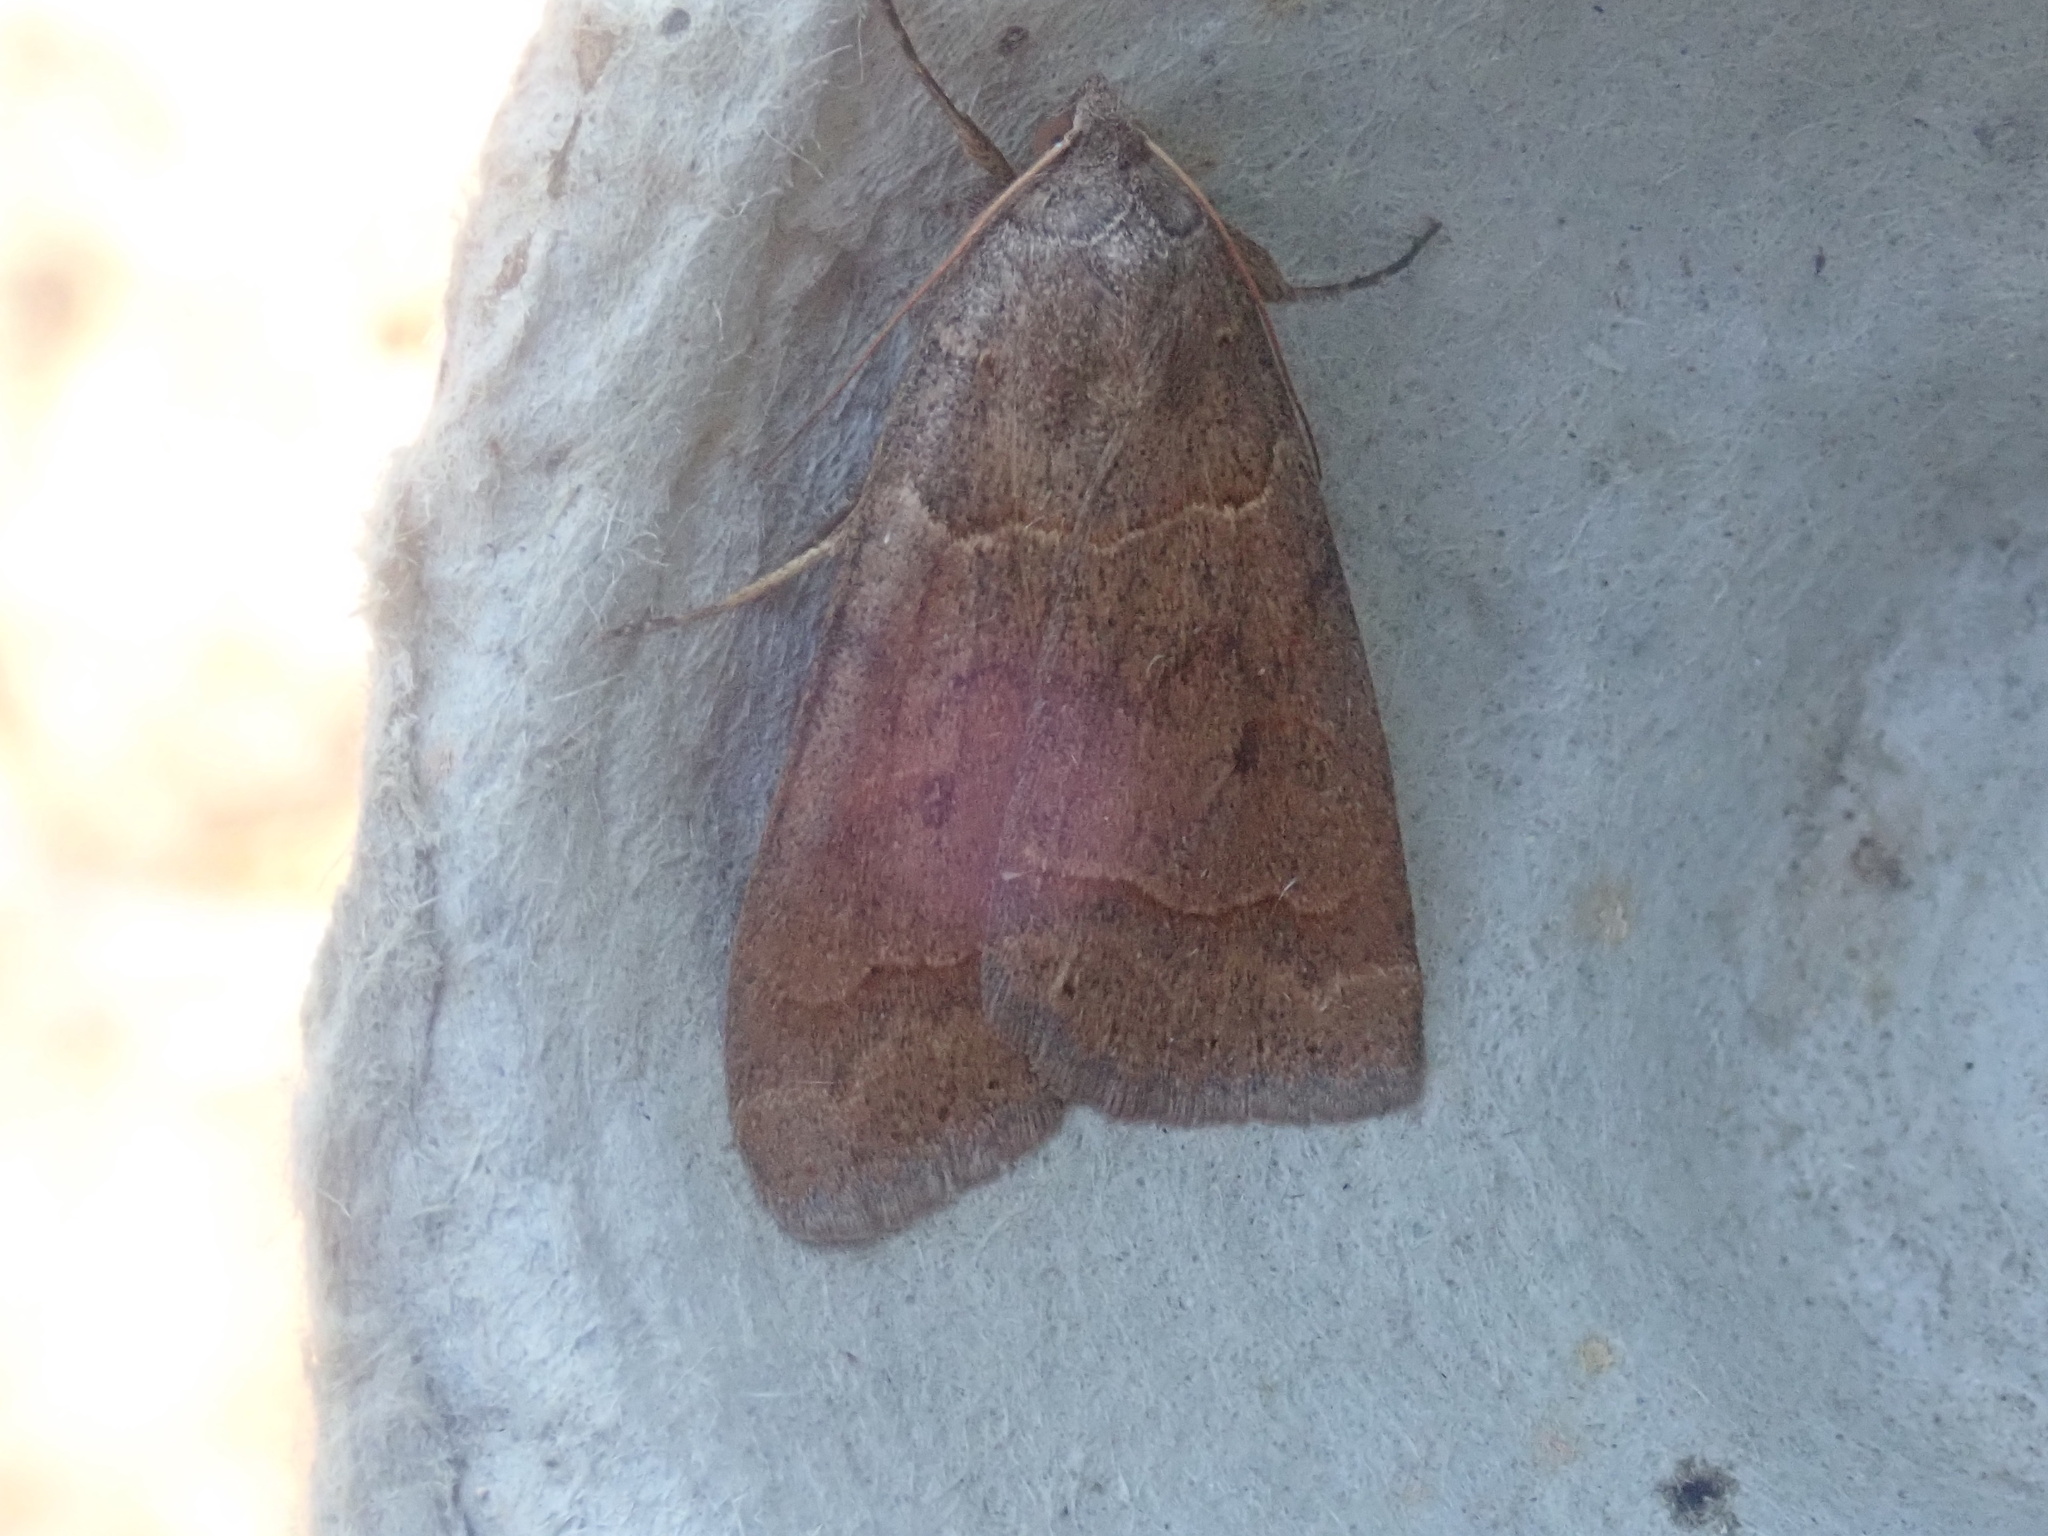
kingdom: Animalia
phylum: Arthropoda
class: Insecta
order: Lepidoptera
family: Erebidae
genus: Phoberia
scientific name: Phoberia atomaris
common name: Common oak moth
